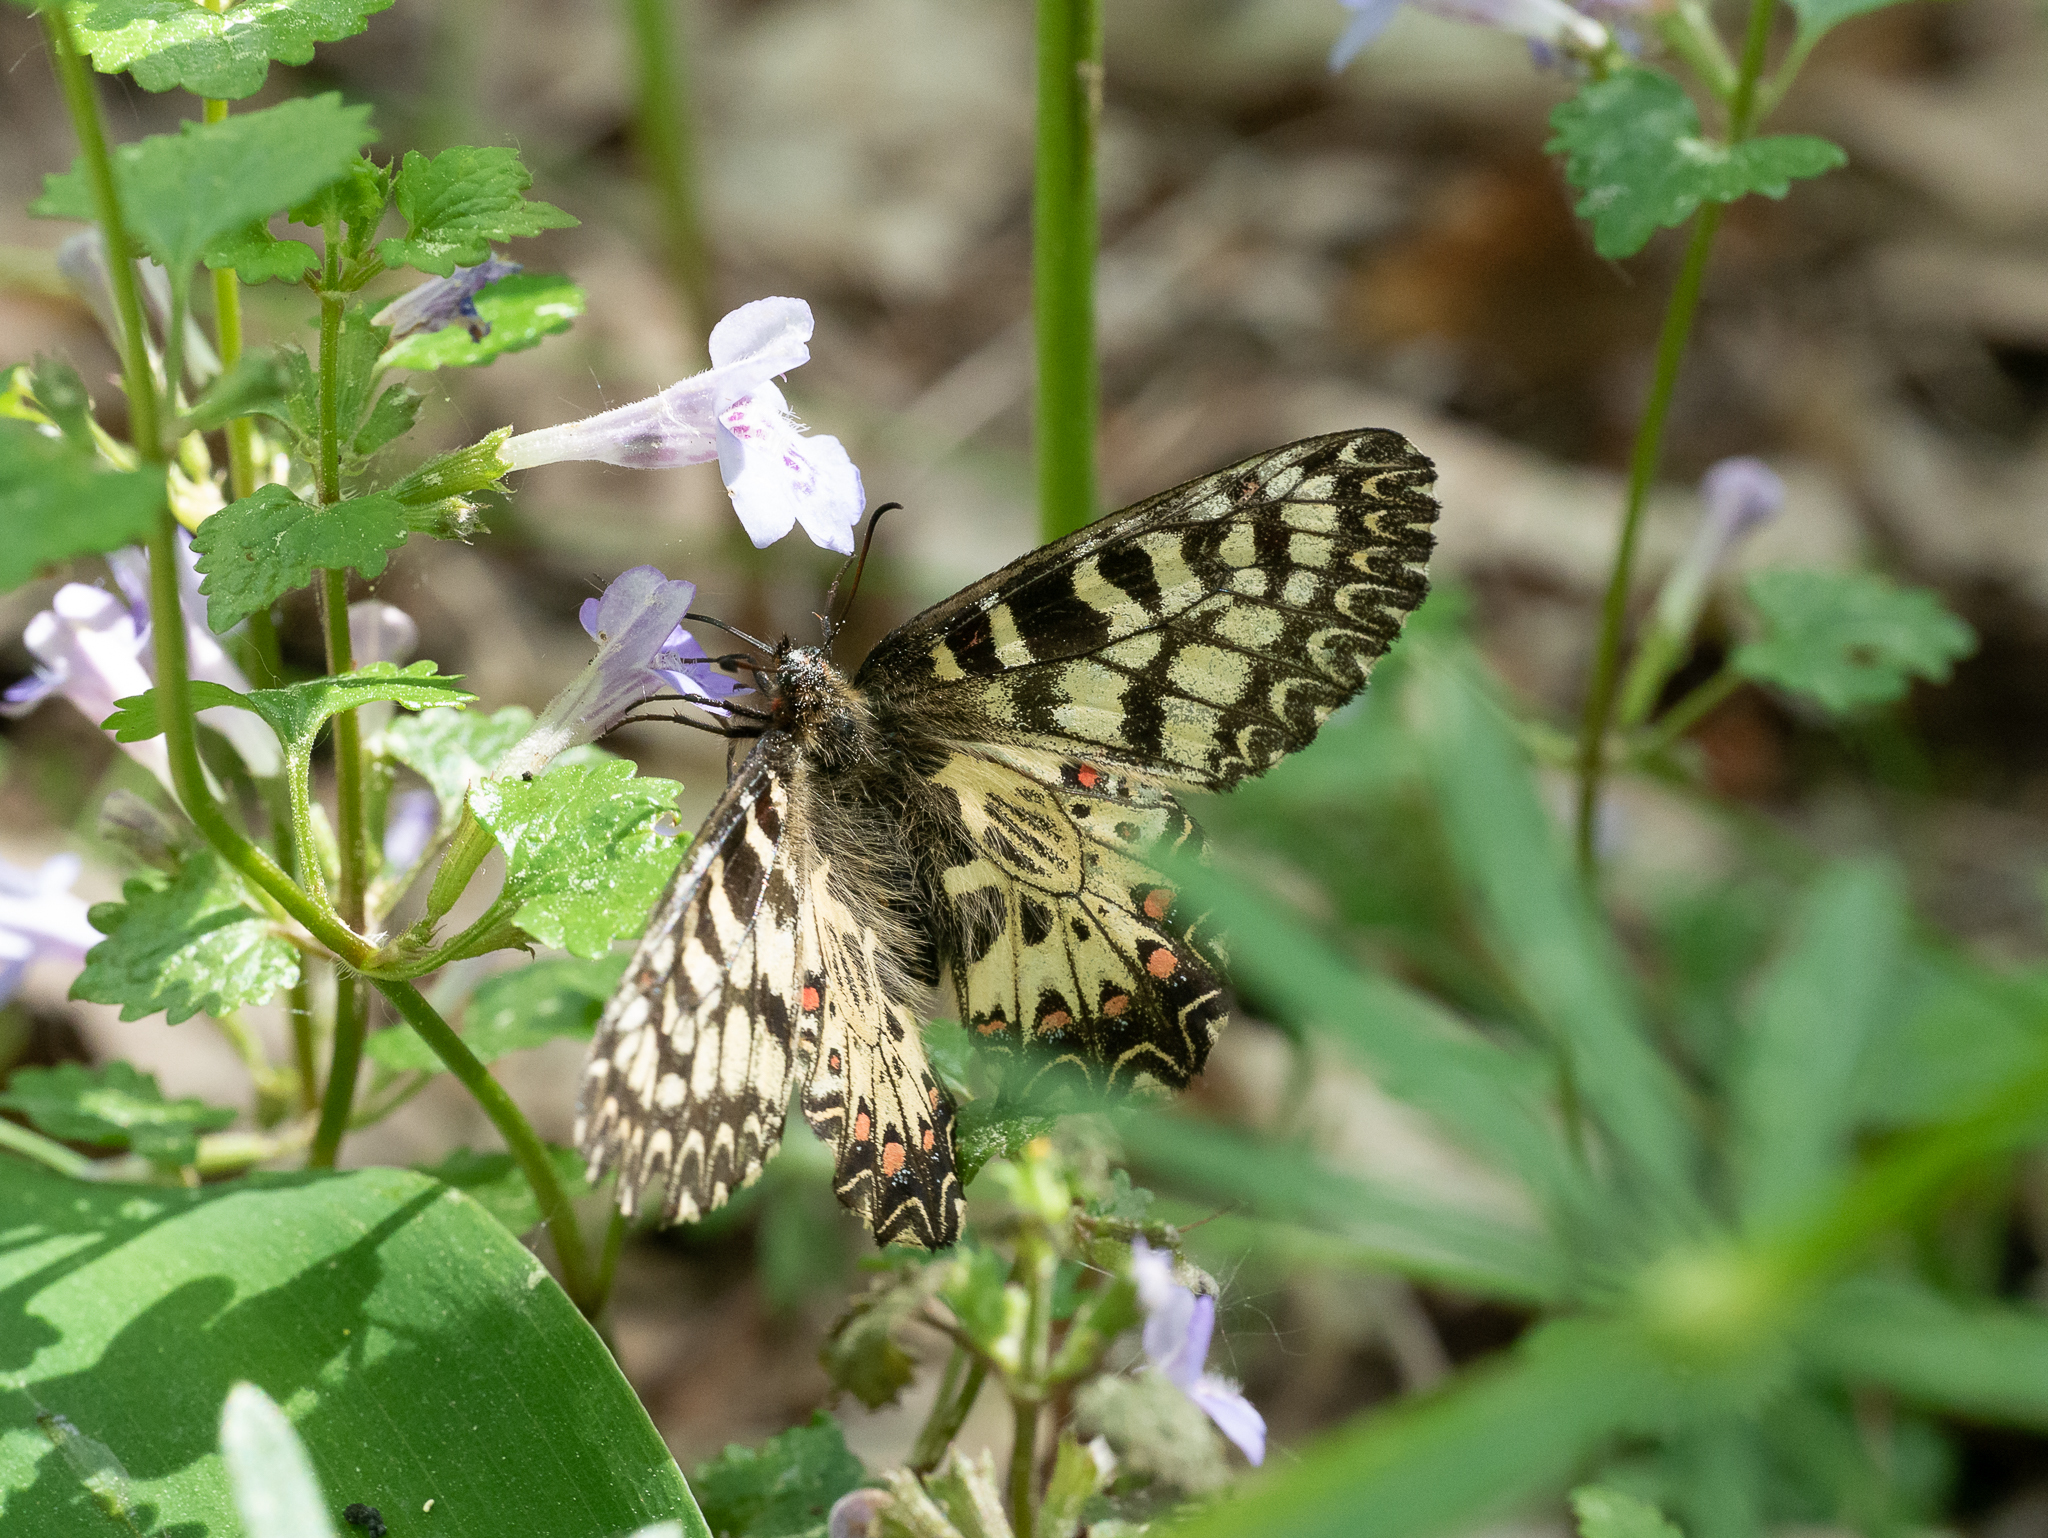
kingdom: Animalia
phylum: Arthropoda
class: Insecta
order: Lepidoptera
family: Papilionidae
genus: Zerynthia
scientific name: Zerynthia polyxena
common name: Southern festoon
